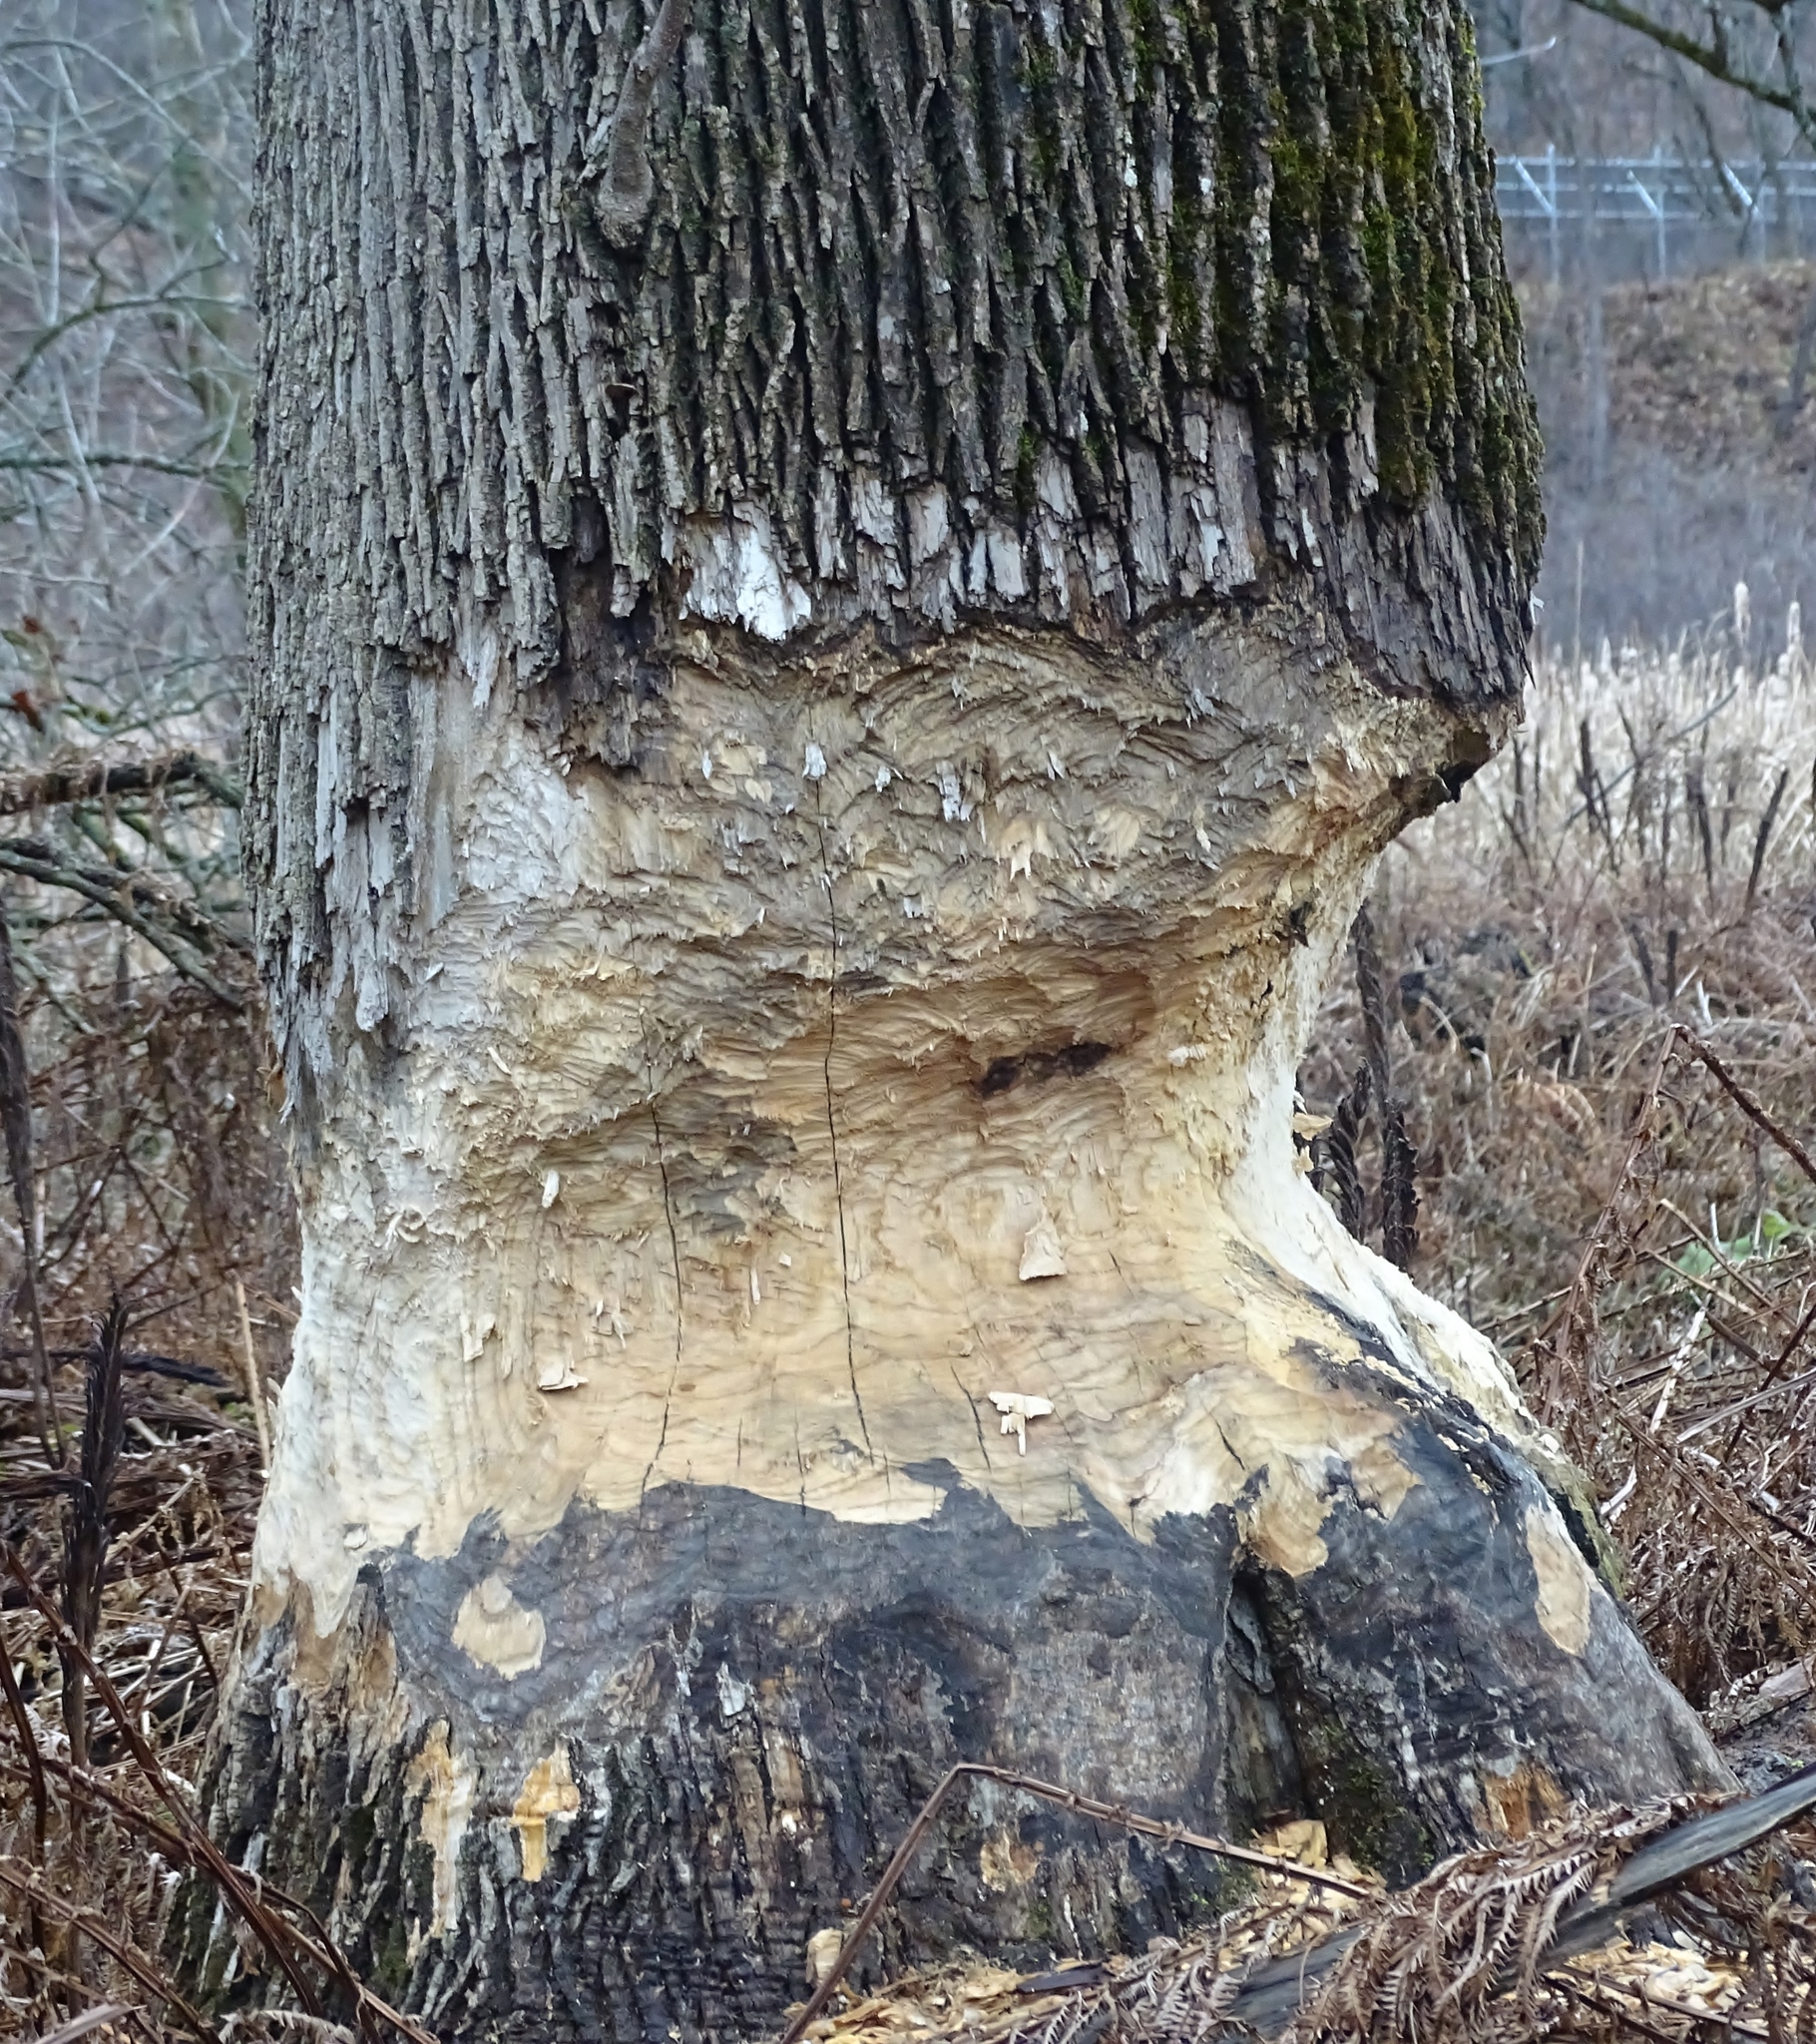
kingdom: Animalia
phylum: Chordata
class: Mammalia
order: Rodentia
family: Castoridae
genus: Castor
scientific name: Castor canadensis
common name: American beaver
